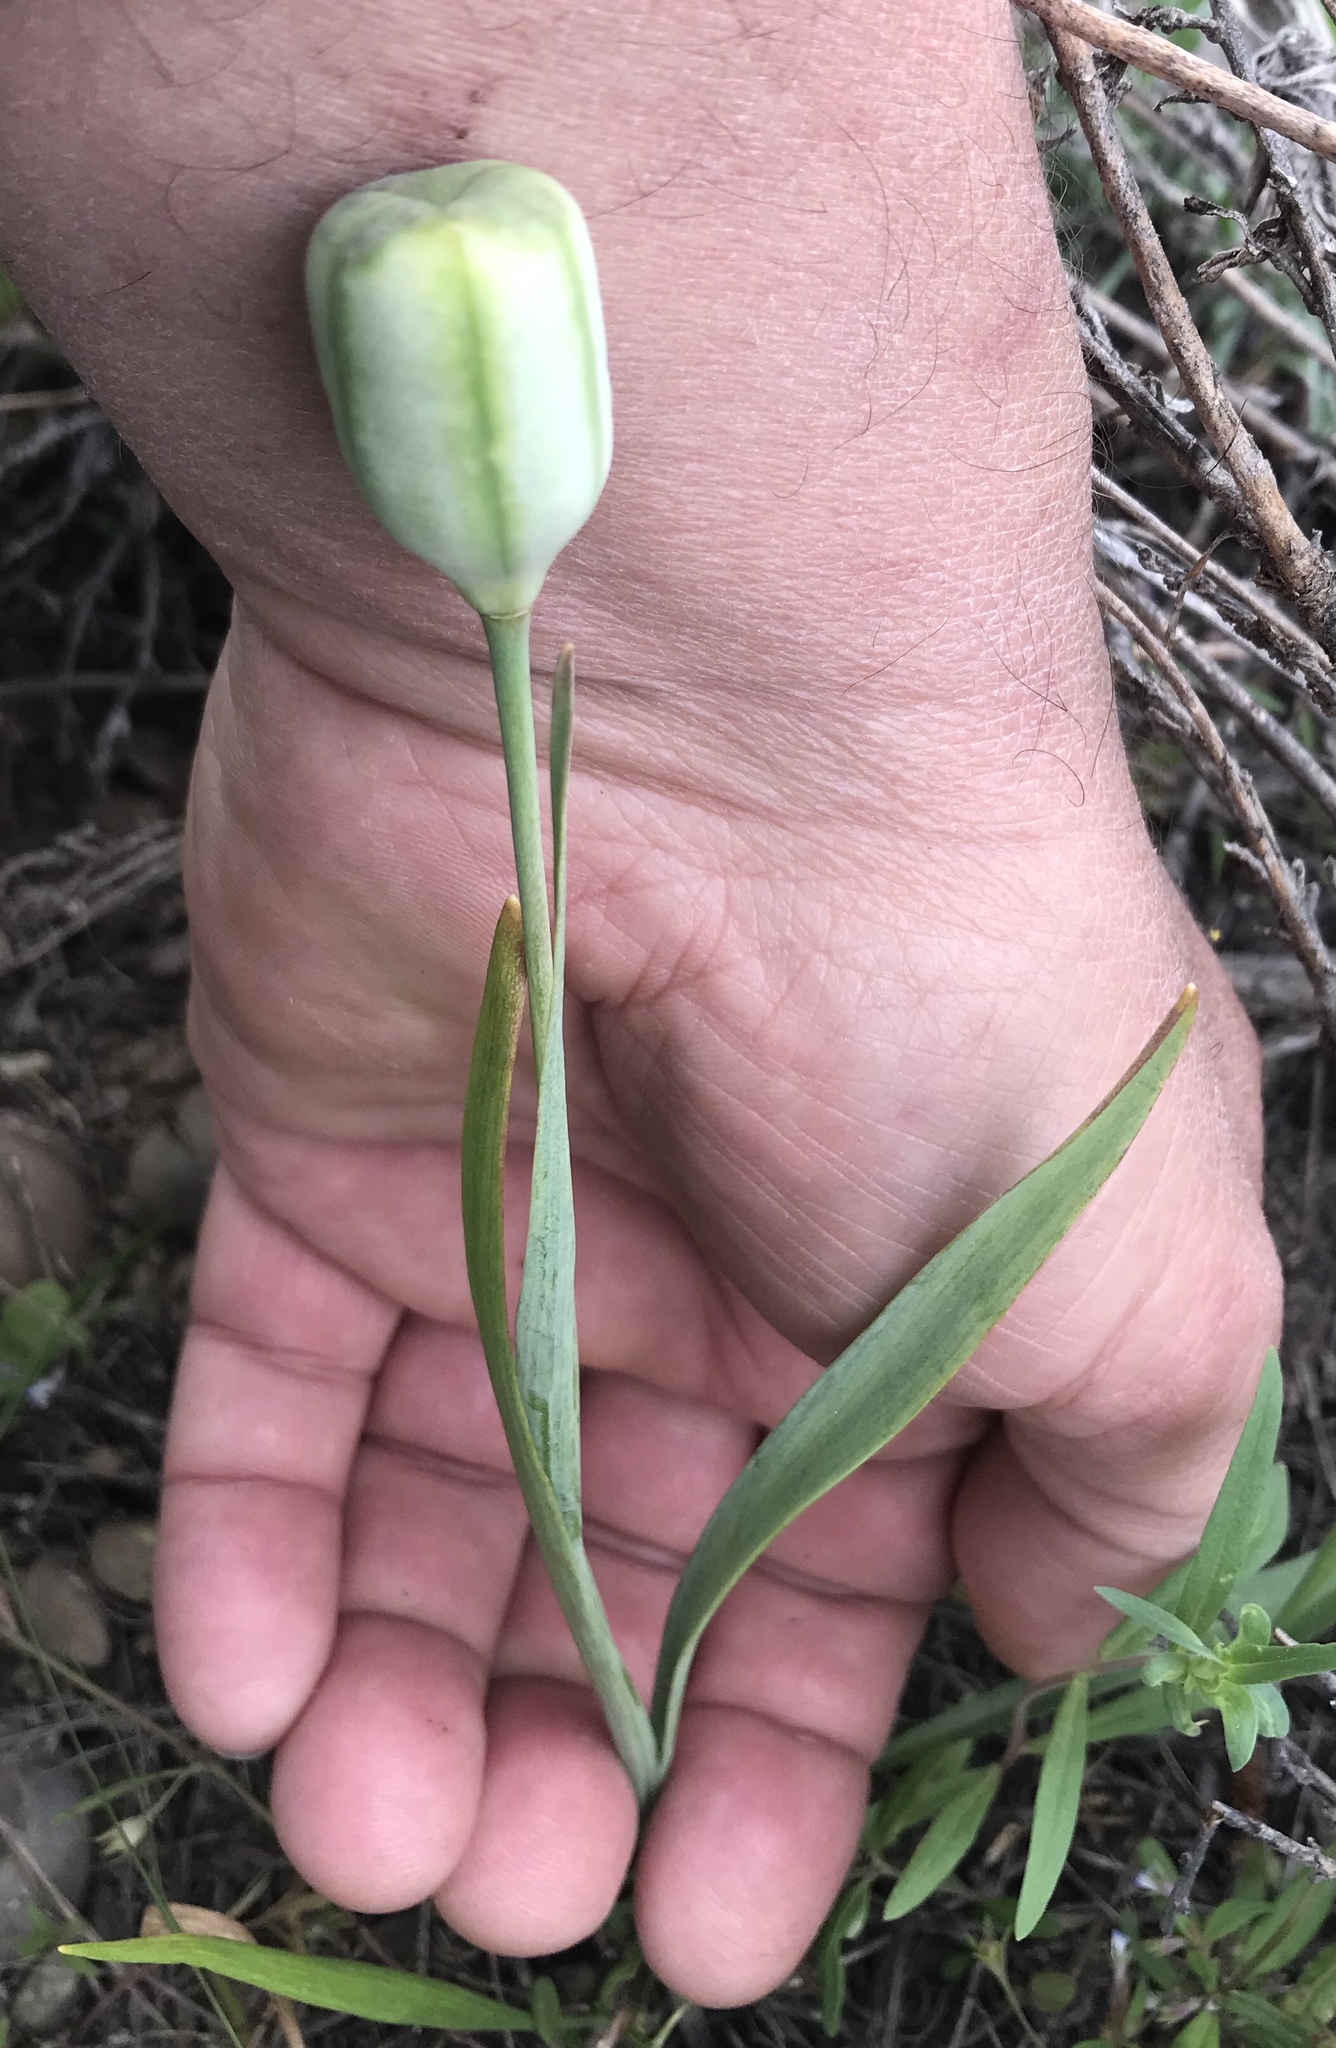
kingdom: Plantae
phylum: Tracheophyta
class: Liliopsida
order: Liliales
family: Liliaceae
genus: Fritillaria
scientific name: Fritillaria pudica
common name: Yellow fritillary
